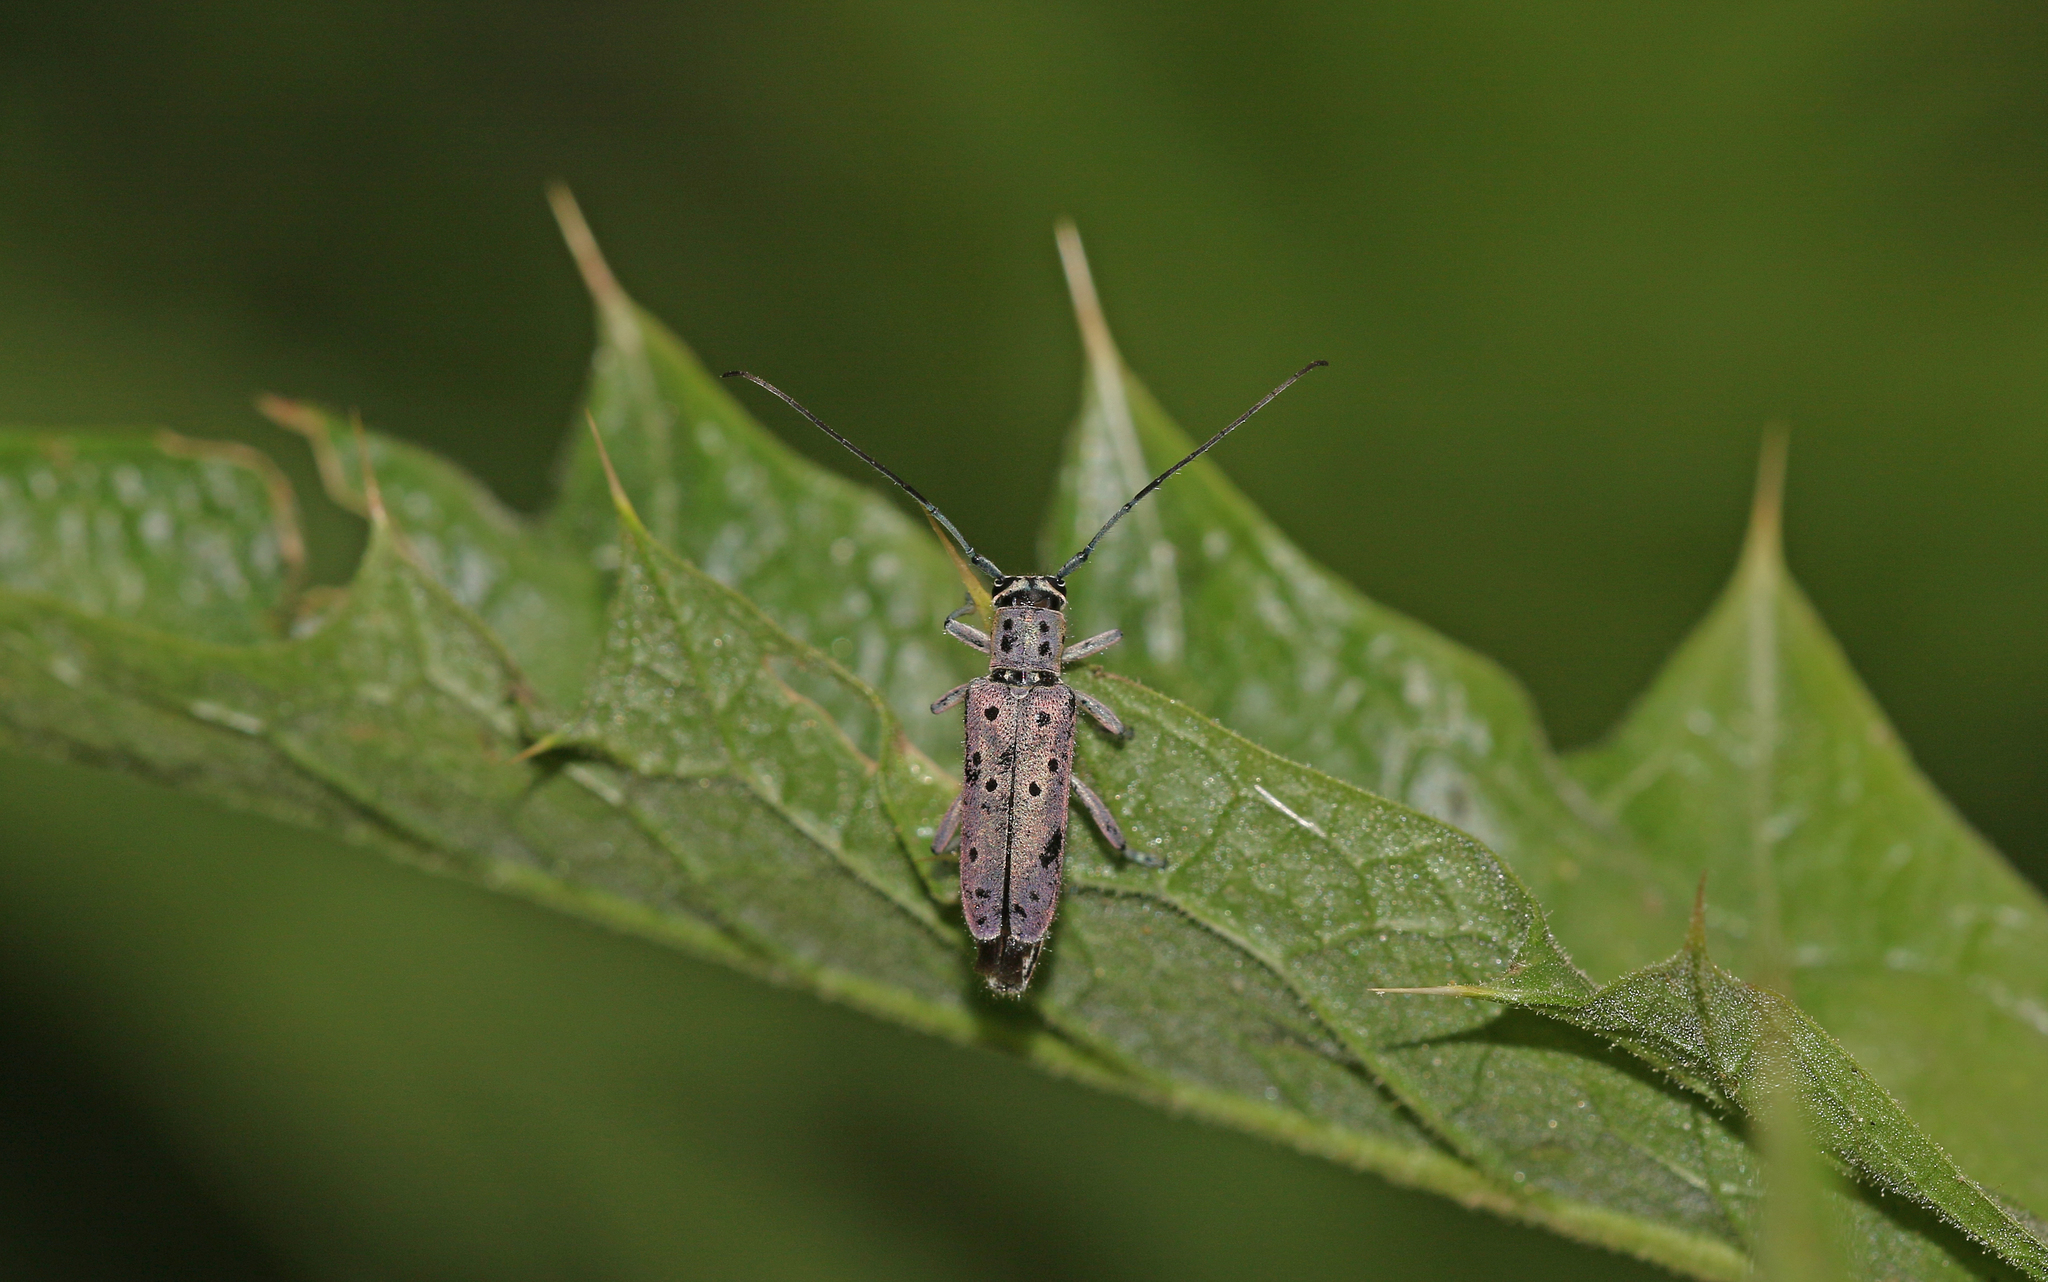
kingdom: Animalia
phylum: Arthropoda
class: Insecta
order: Coleoptera
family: Cerambycidae
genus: Saperda
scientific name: Saperda punctata
